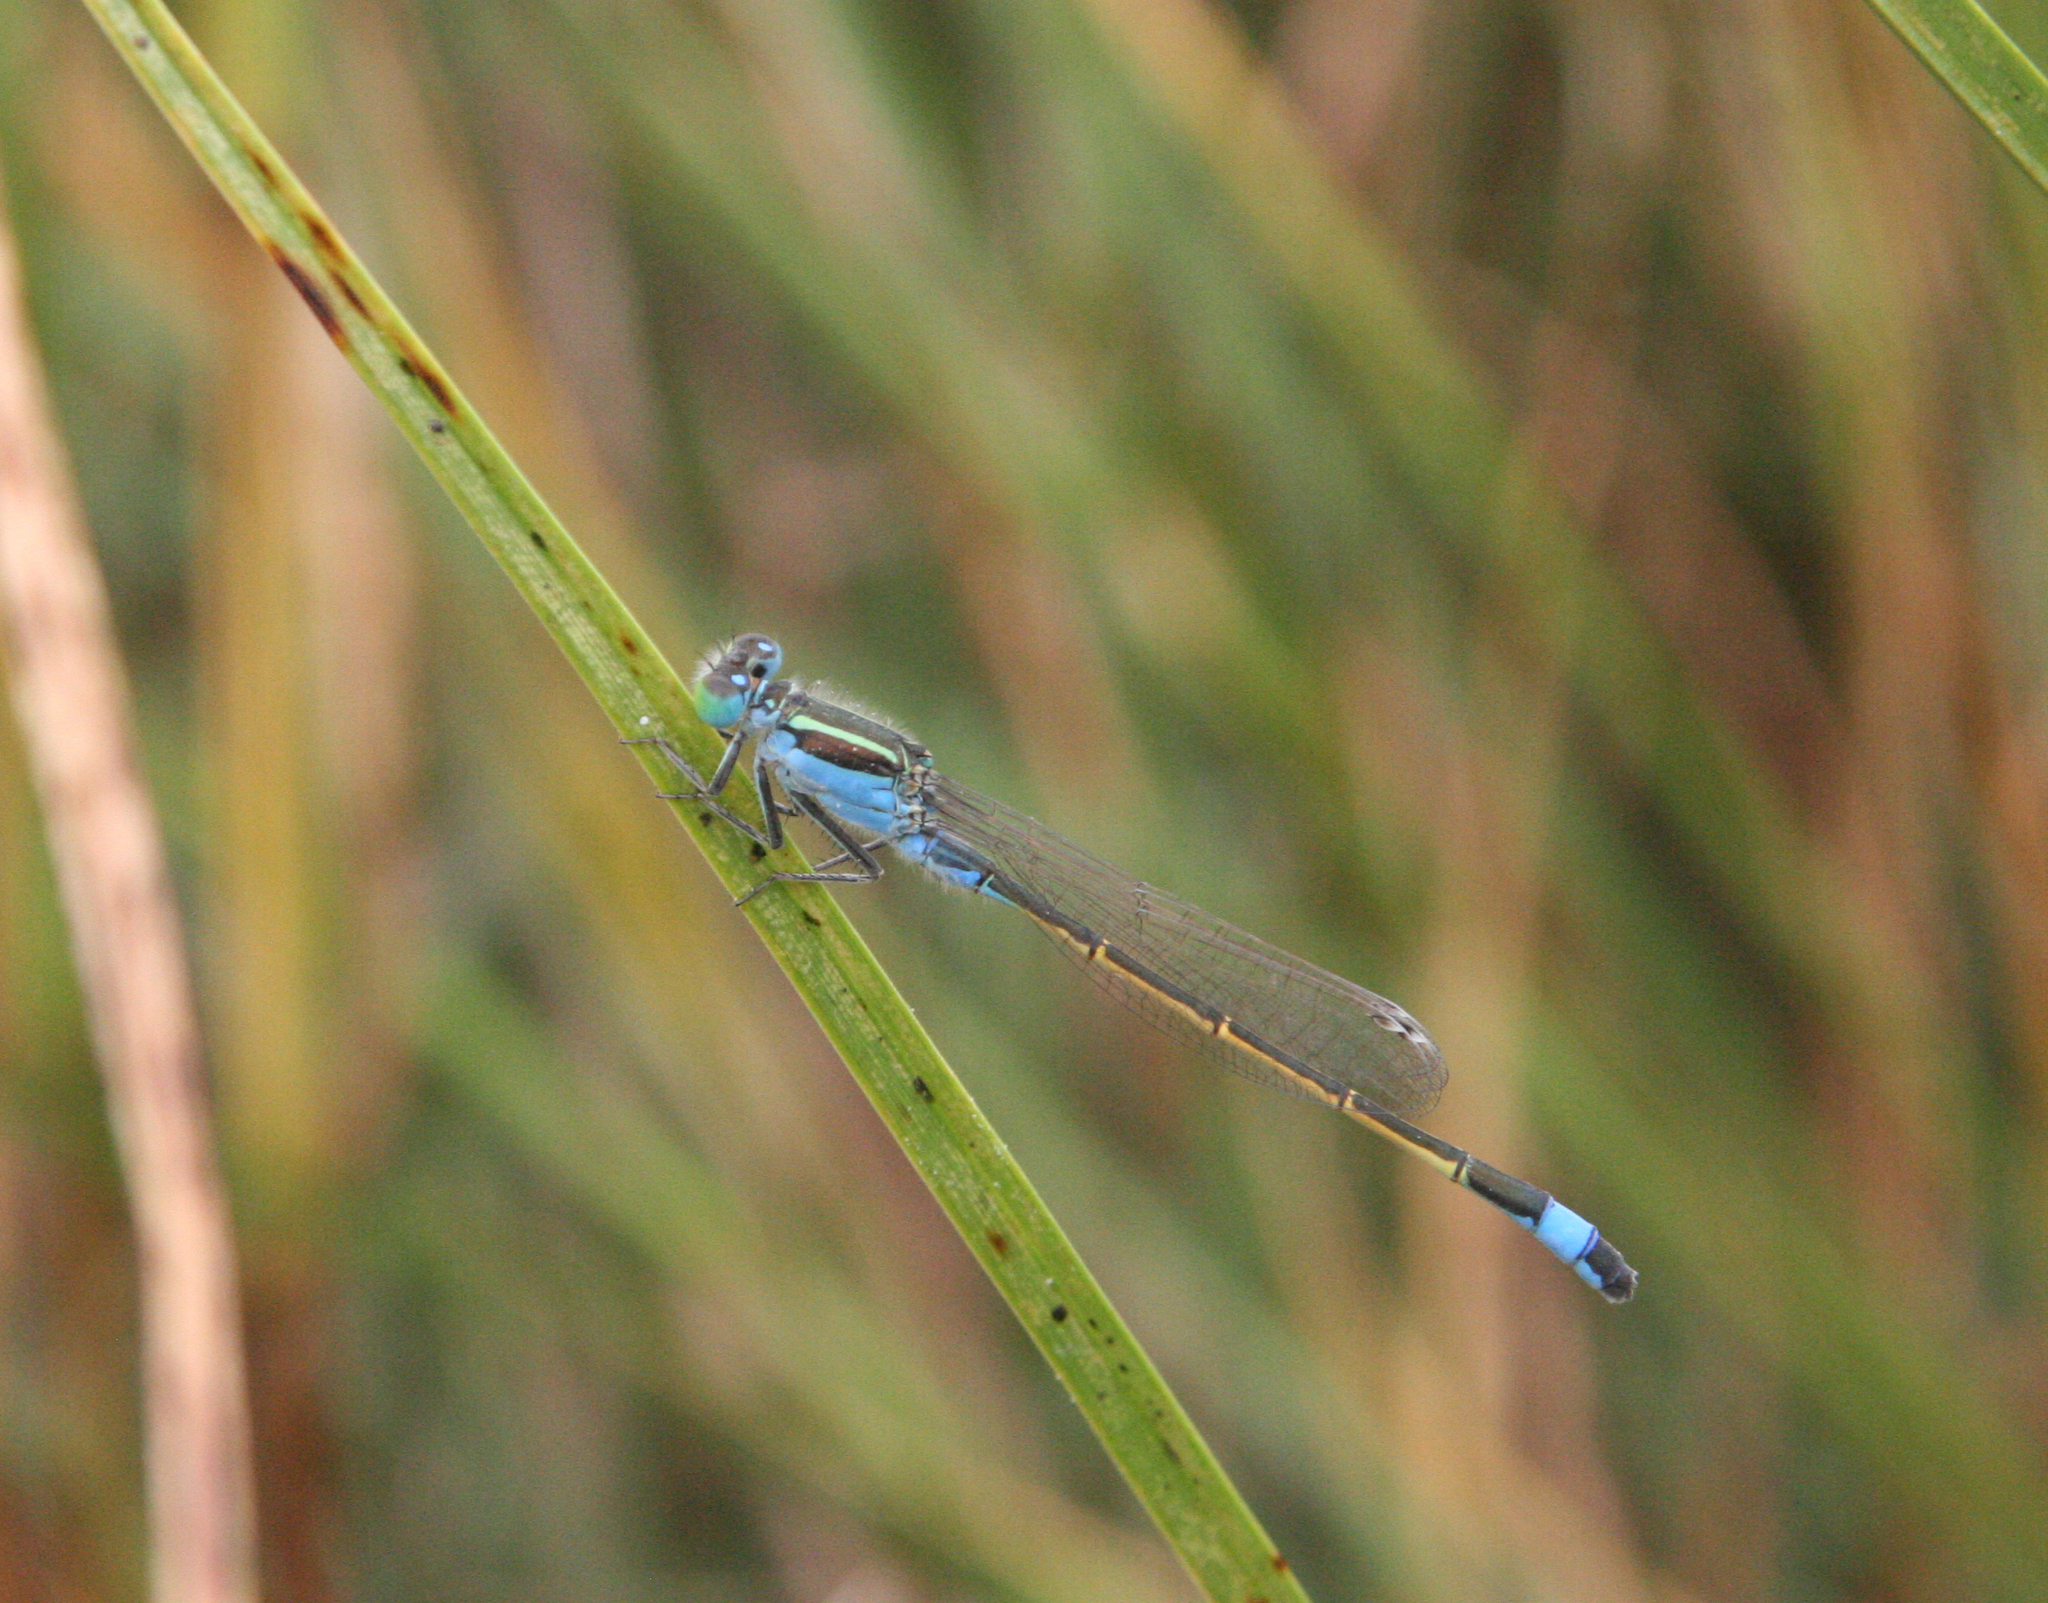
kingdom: Animalia
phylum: Arthropoda
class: Insecta
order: Odonata
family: Coenagrionidae
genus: Ischnura
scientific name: Ischnura fountaineae
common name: Oasis bluetail
